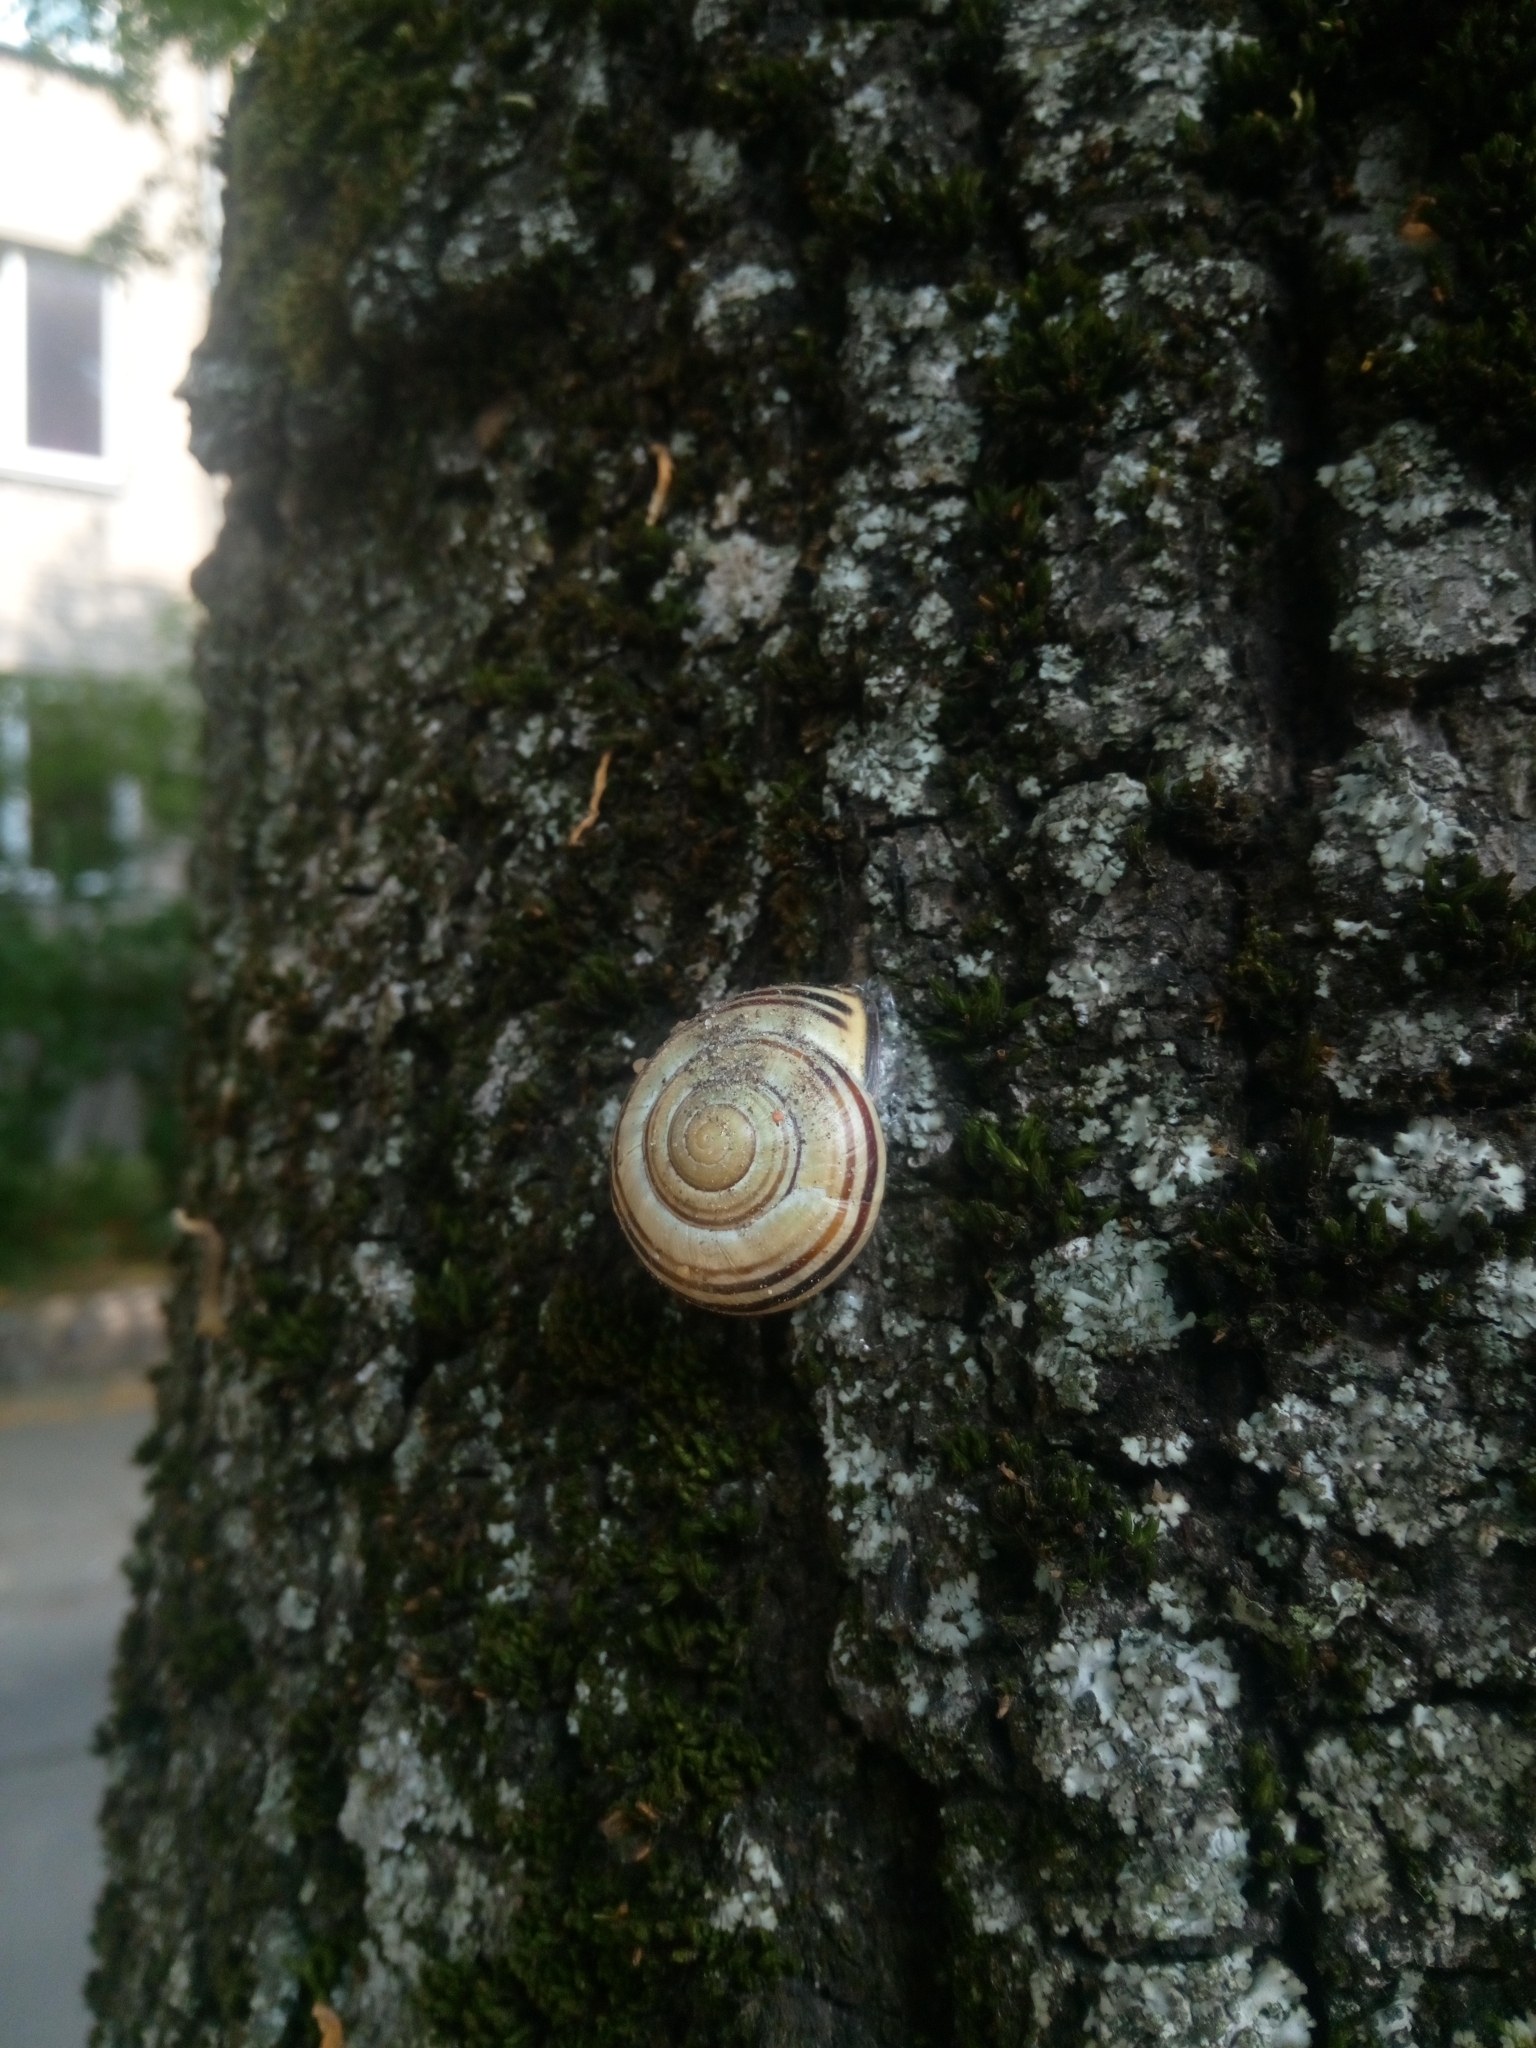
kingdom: Animalia
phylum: Mollusca
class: Gastropoda
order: Stylommatophora
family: Helicidae
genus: Cepaea
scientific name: Cepaea nemoralis
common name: Grovesnail
